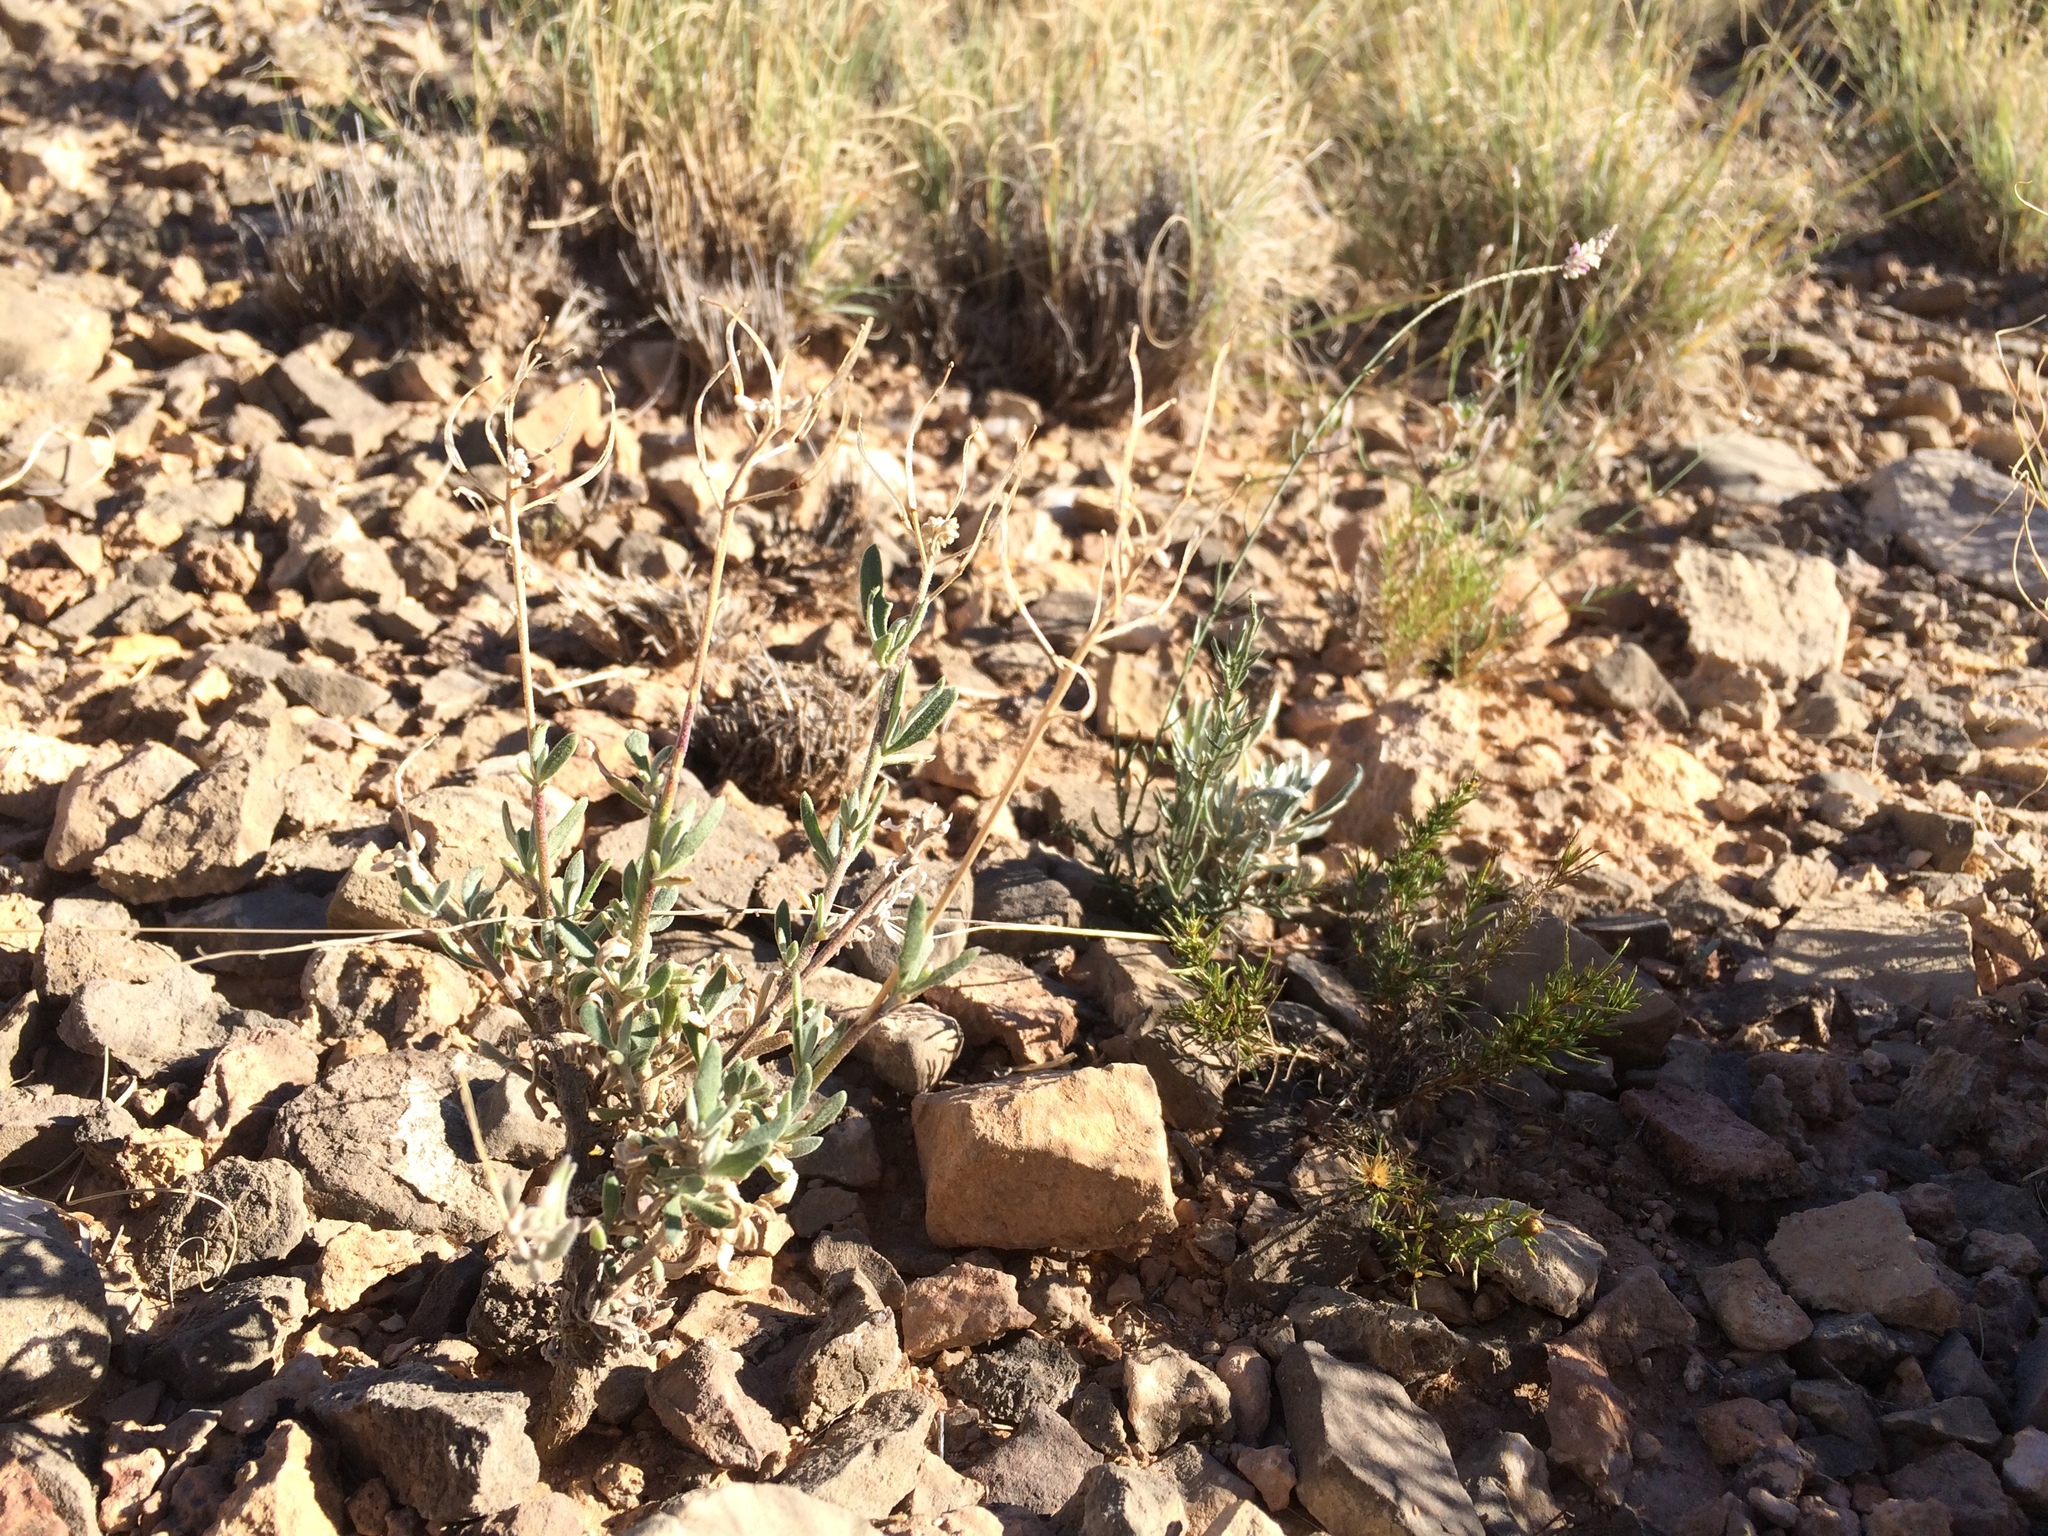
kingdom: Plantae
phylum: Tracheophyta
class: Magnoliopsida
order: Brassicales
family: Brassicaceae
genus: Nerisyrenia
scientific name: Nerisyrenia camporum
